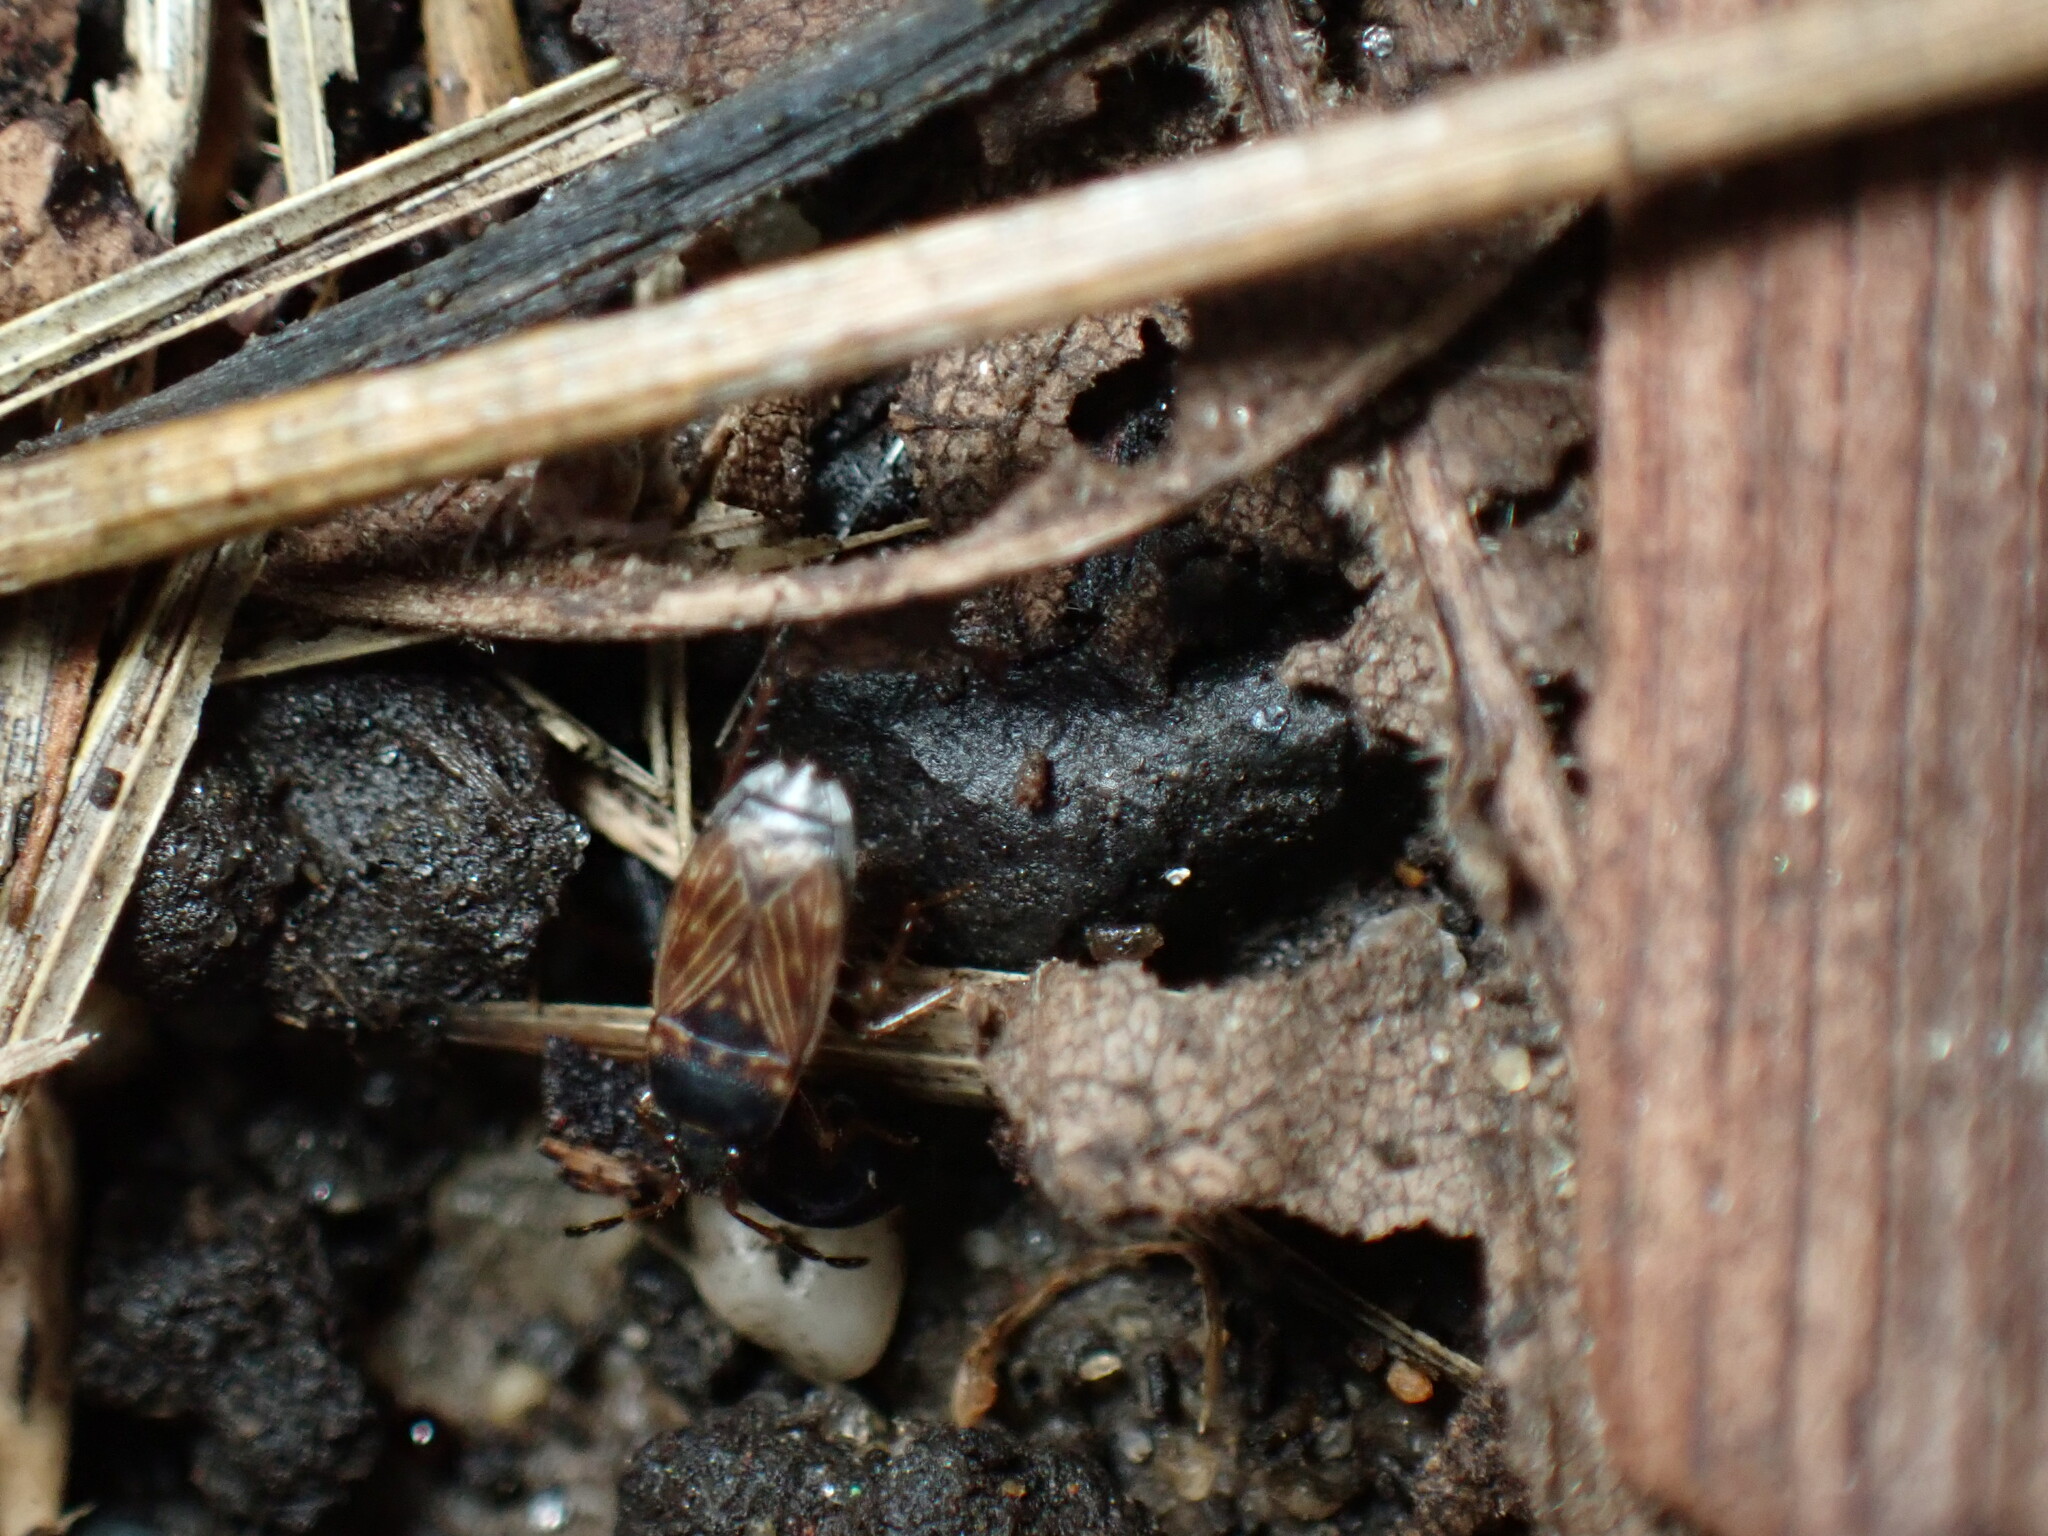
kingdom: Animalia
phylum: Arthropoda
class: Insecta
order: Hemiptera
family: Rhyparochromidae
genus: Cryphula
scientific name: Cryphula trimaculata
